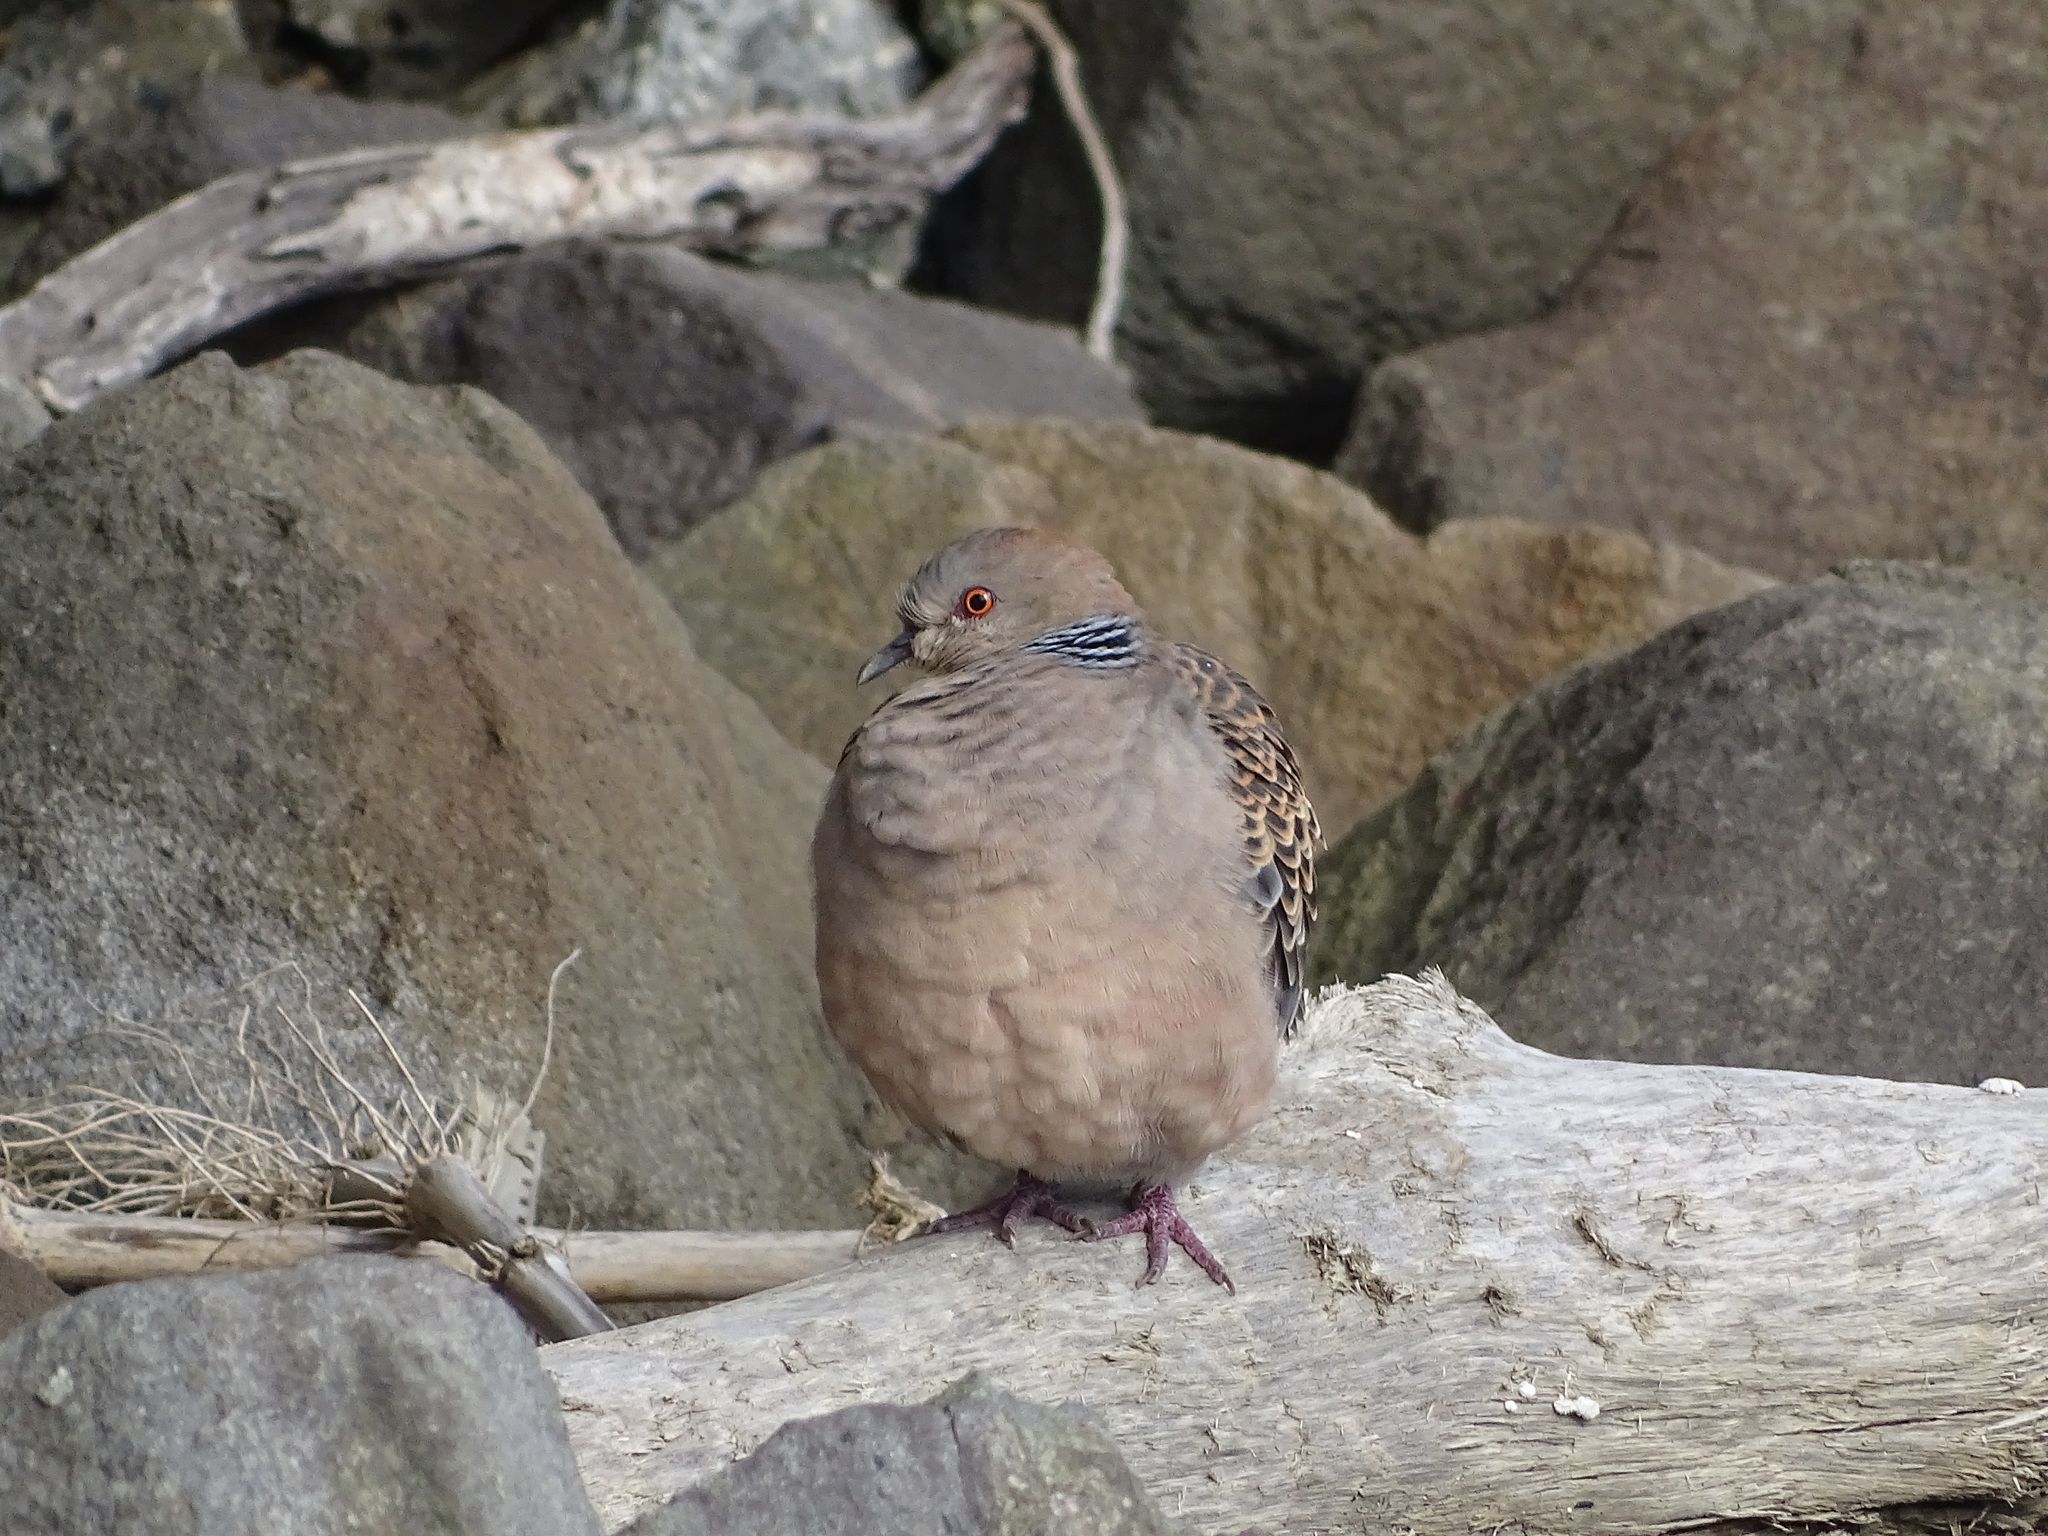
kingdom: Animalia
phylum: Chordata
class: Aves
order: Columbiformes
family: Columbidae
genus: Streptopelia
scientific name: Streptopelia orientalis
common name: Oriental turtle dove
